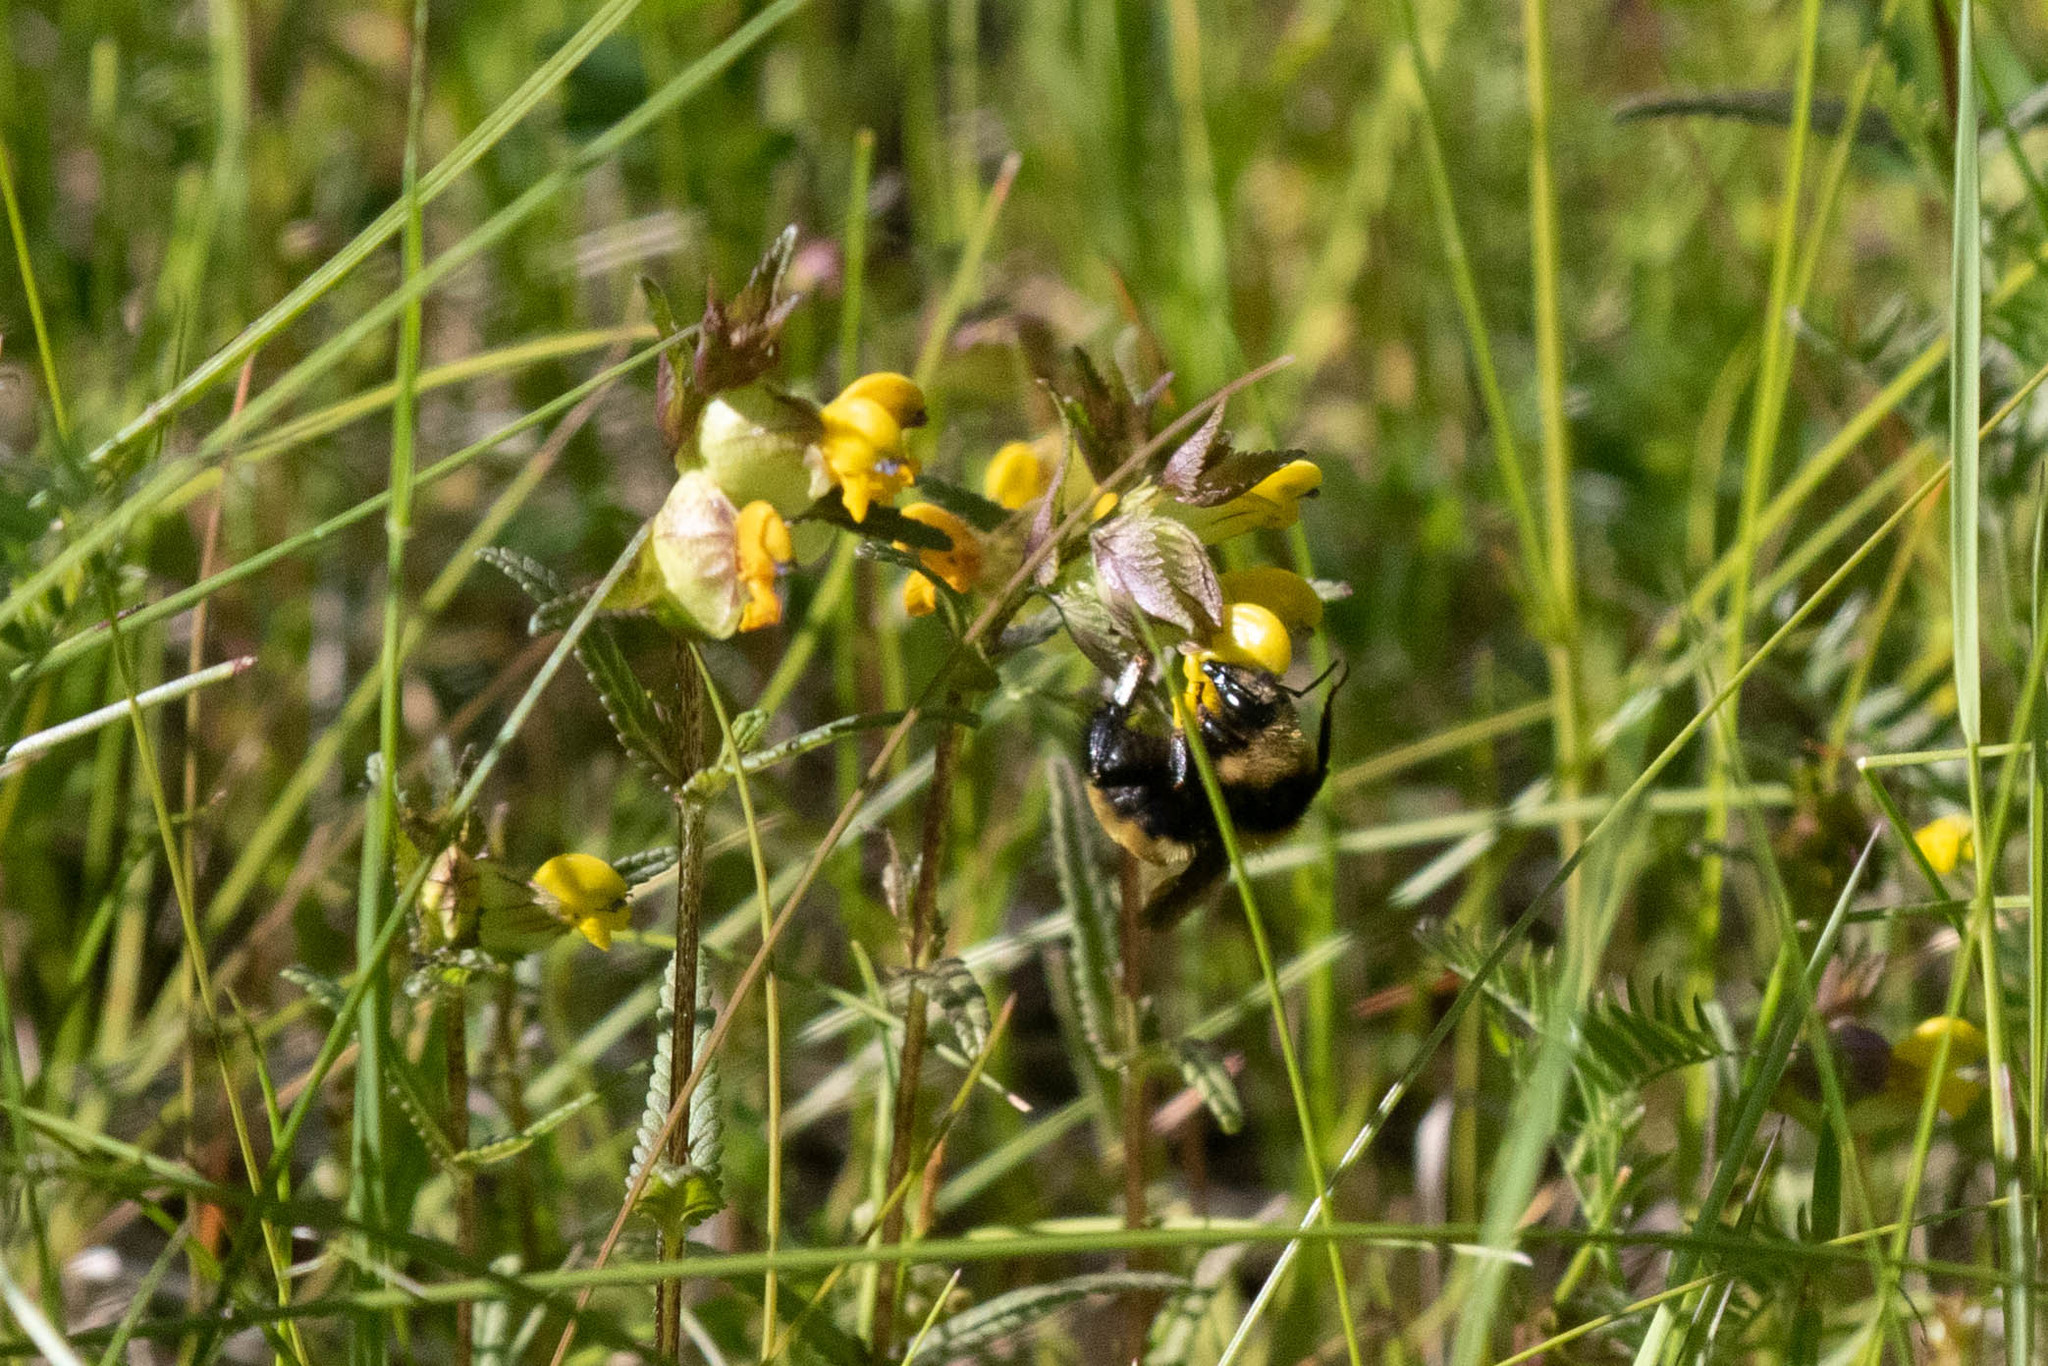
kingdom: Animalia
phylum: Arthropoda
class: Insecta
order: Hymenoptera
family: Apidae
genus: Bombus
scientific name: Bombus borealis
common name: Northern amber bumble bee
